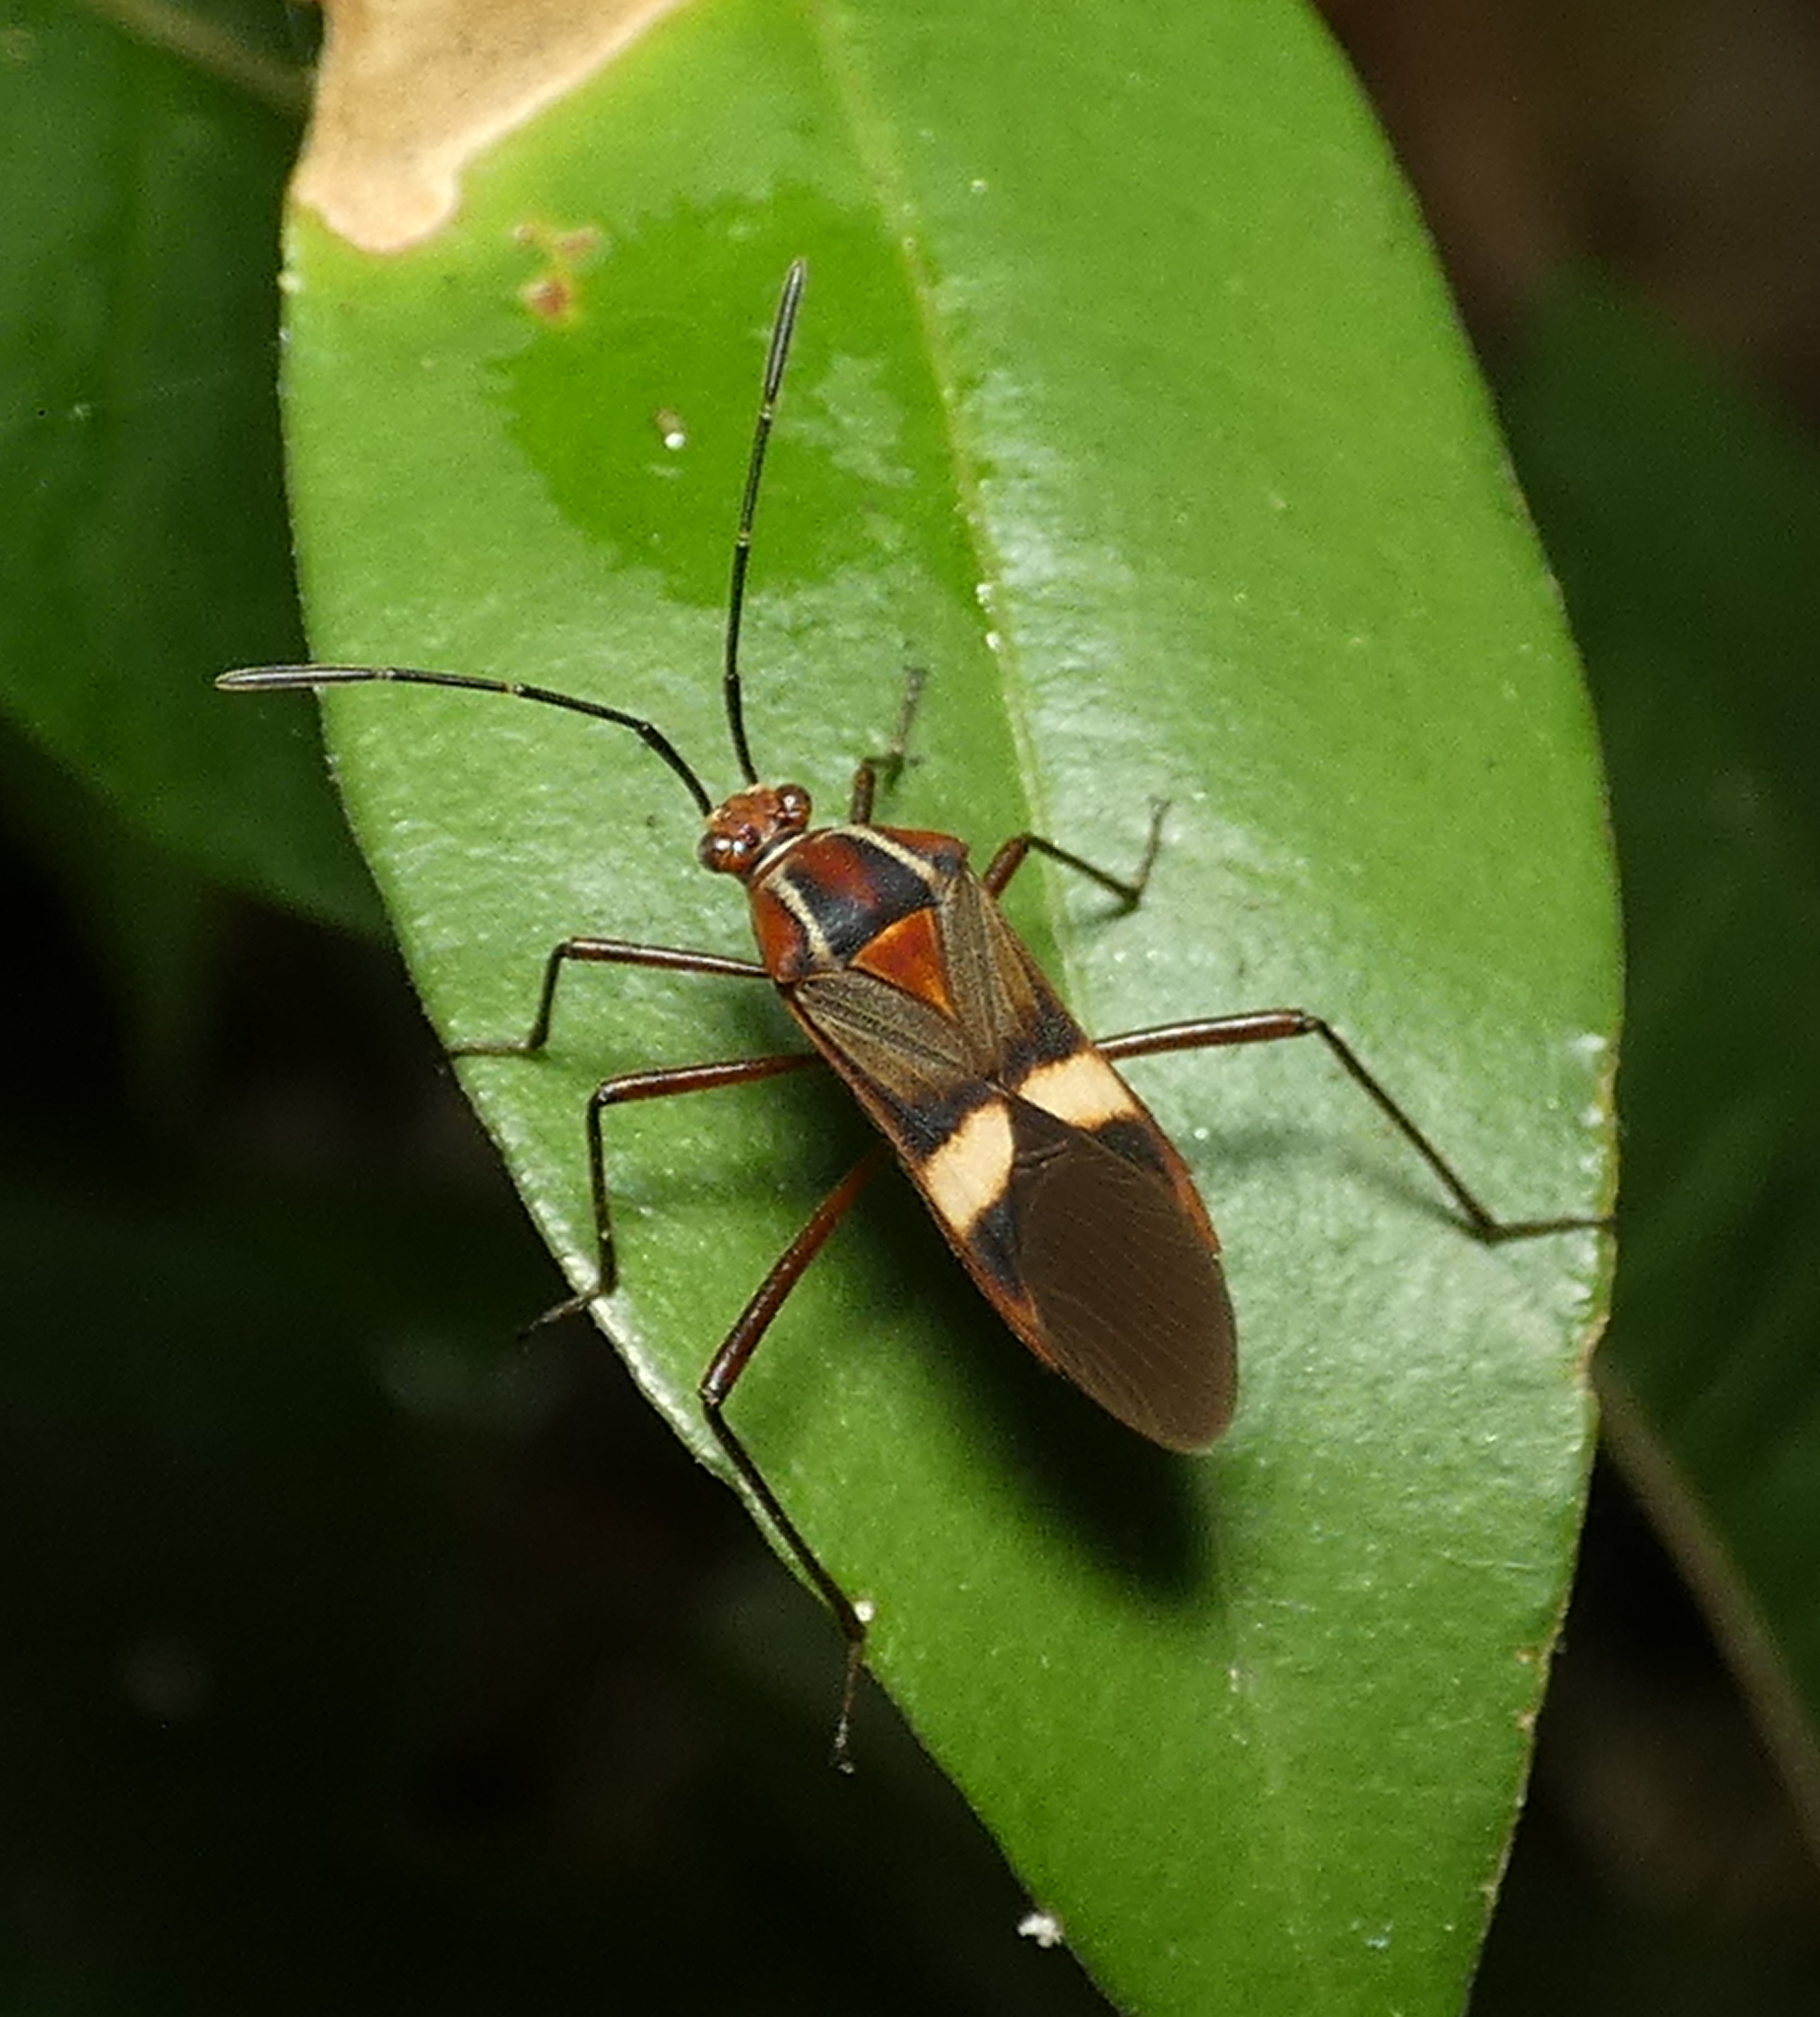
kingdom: Animalia
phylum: Arthropoda
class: Insecta
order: Hemiptera
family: Coreidae
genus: Hypselonotus
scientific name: Hypselonotus interruptus
